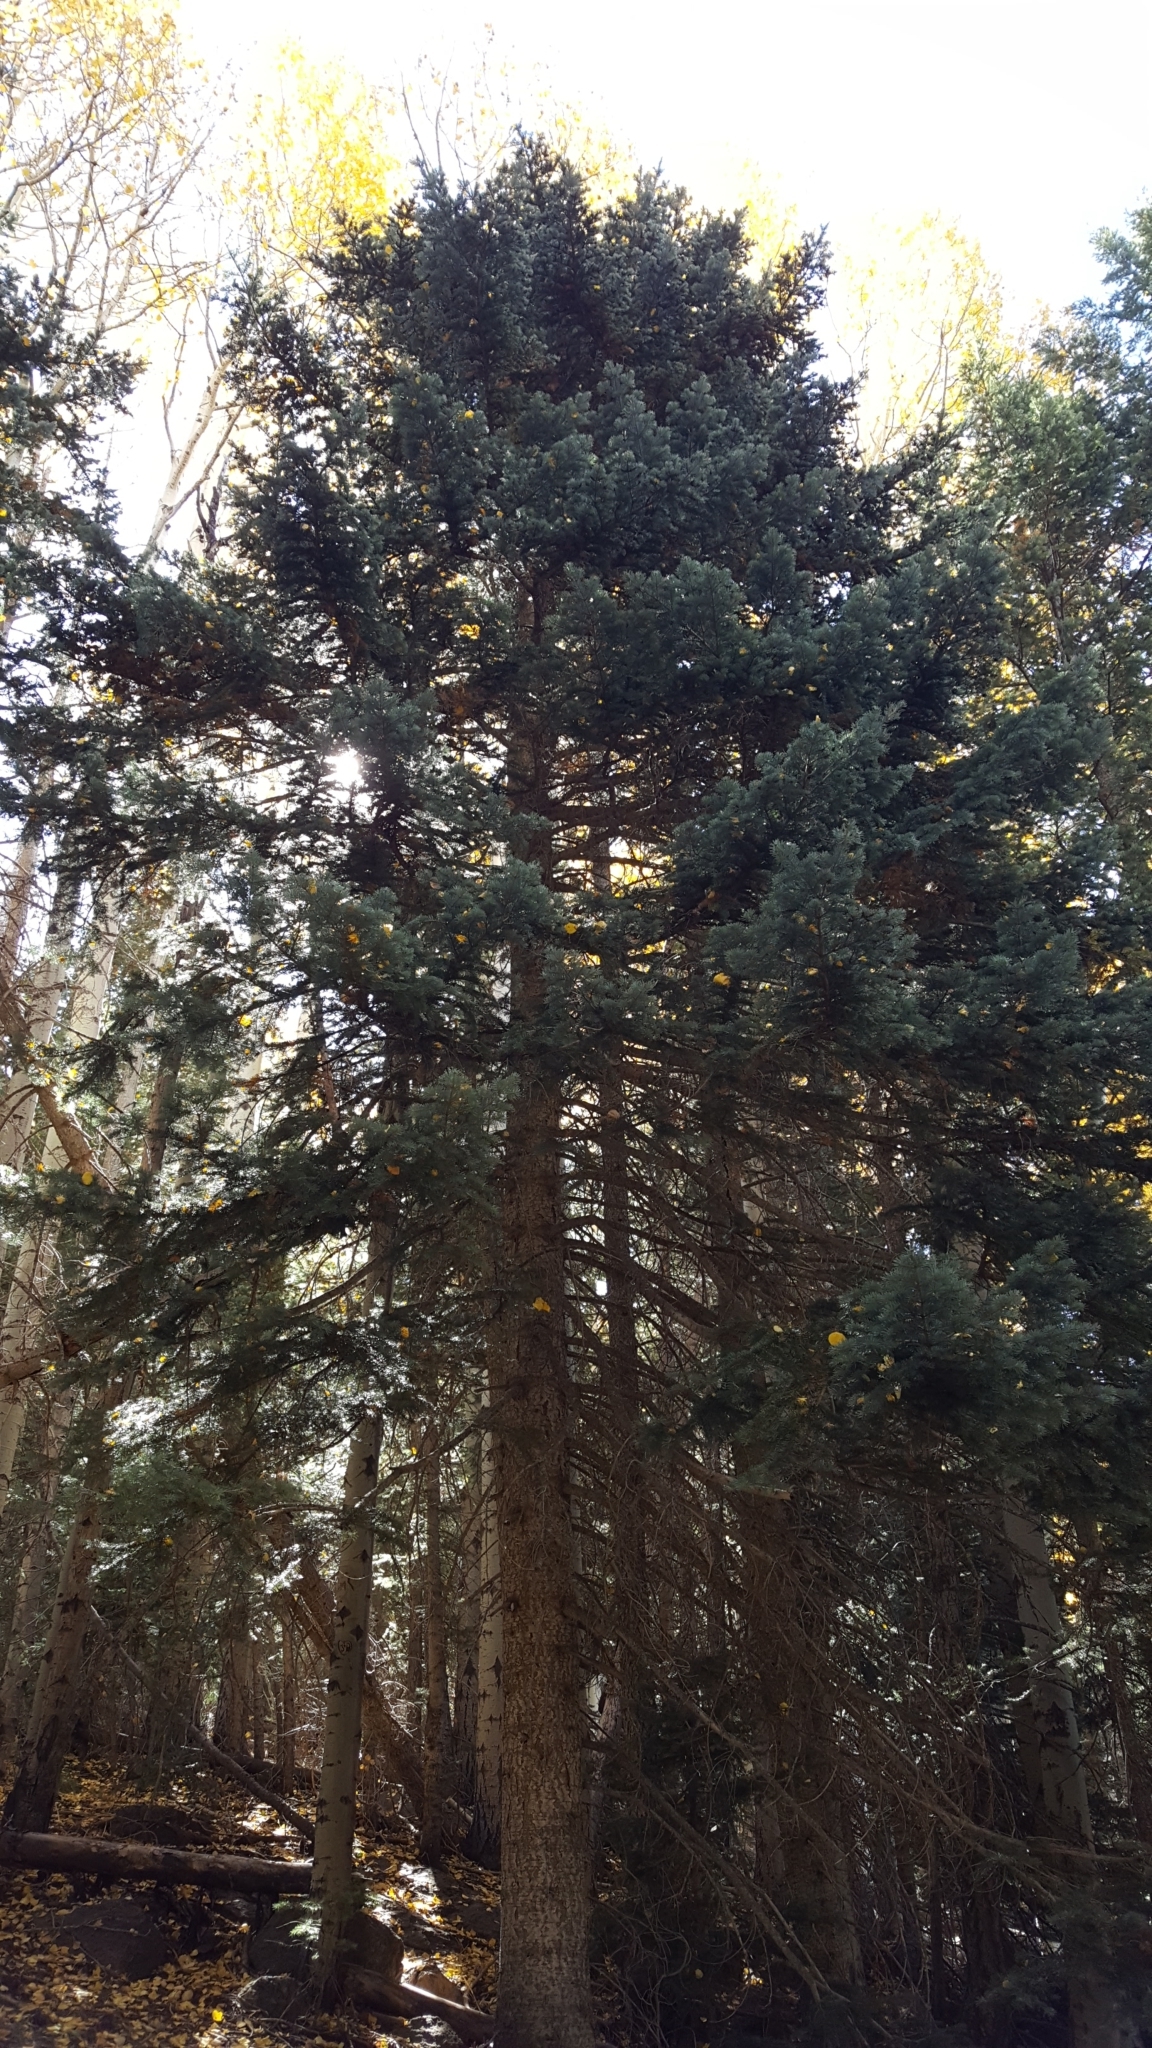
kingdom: Plantae
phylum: Tracheophyta
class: Pinopsida
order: Pinales
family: Pinaceae
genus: Abies
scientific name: Abies lasiocarpa
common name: Subalpine fir
